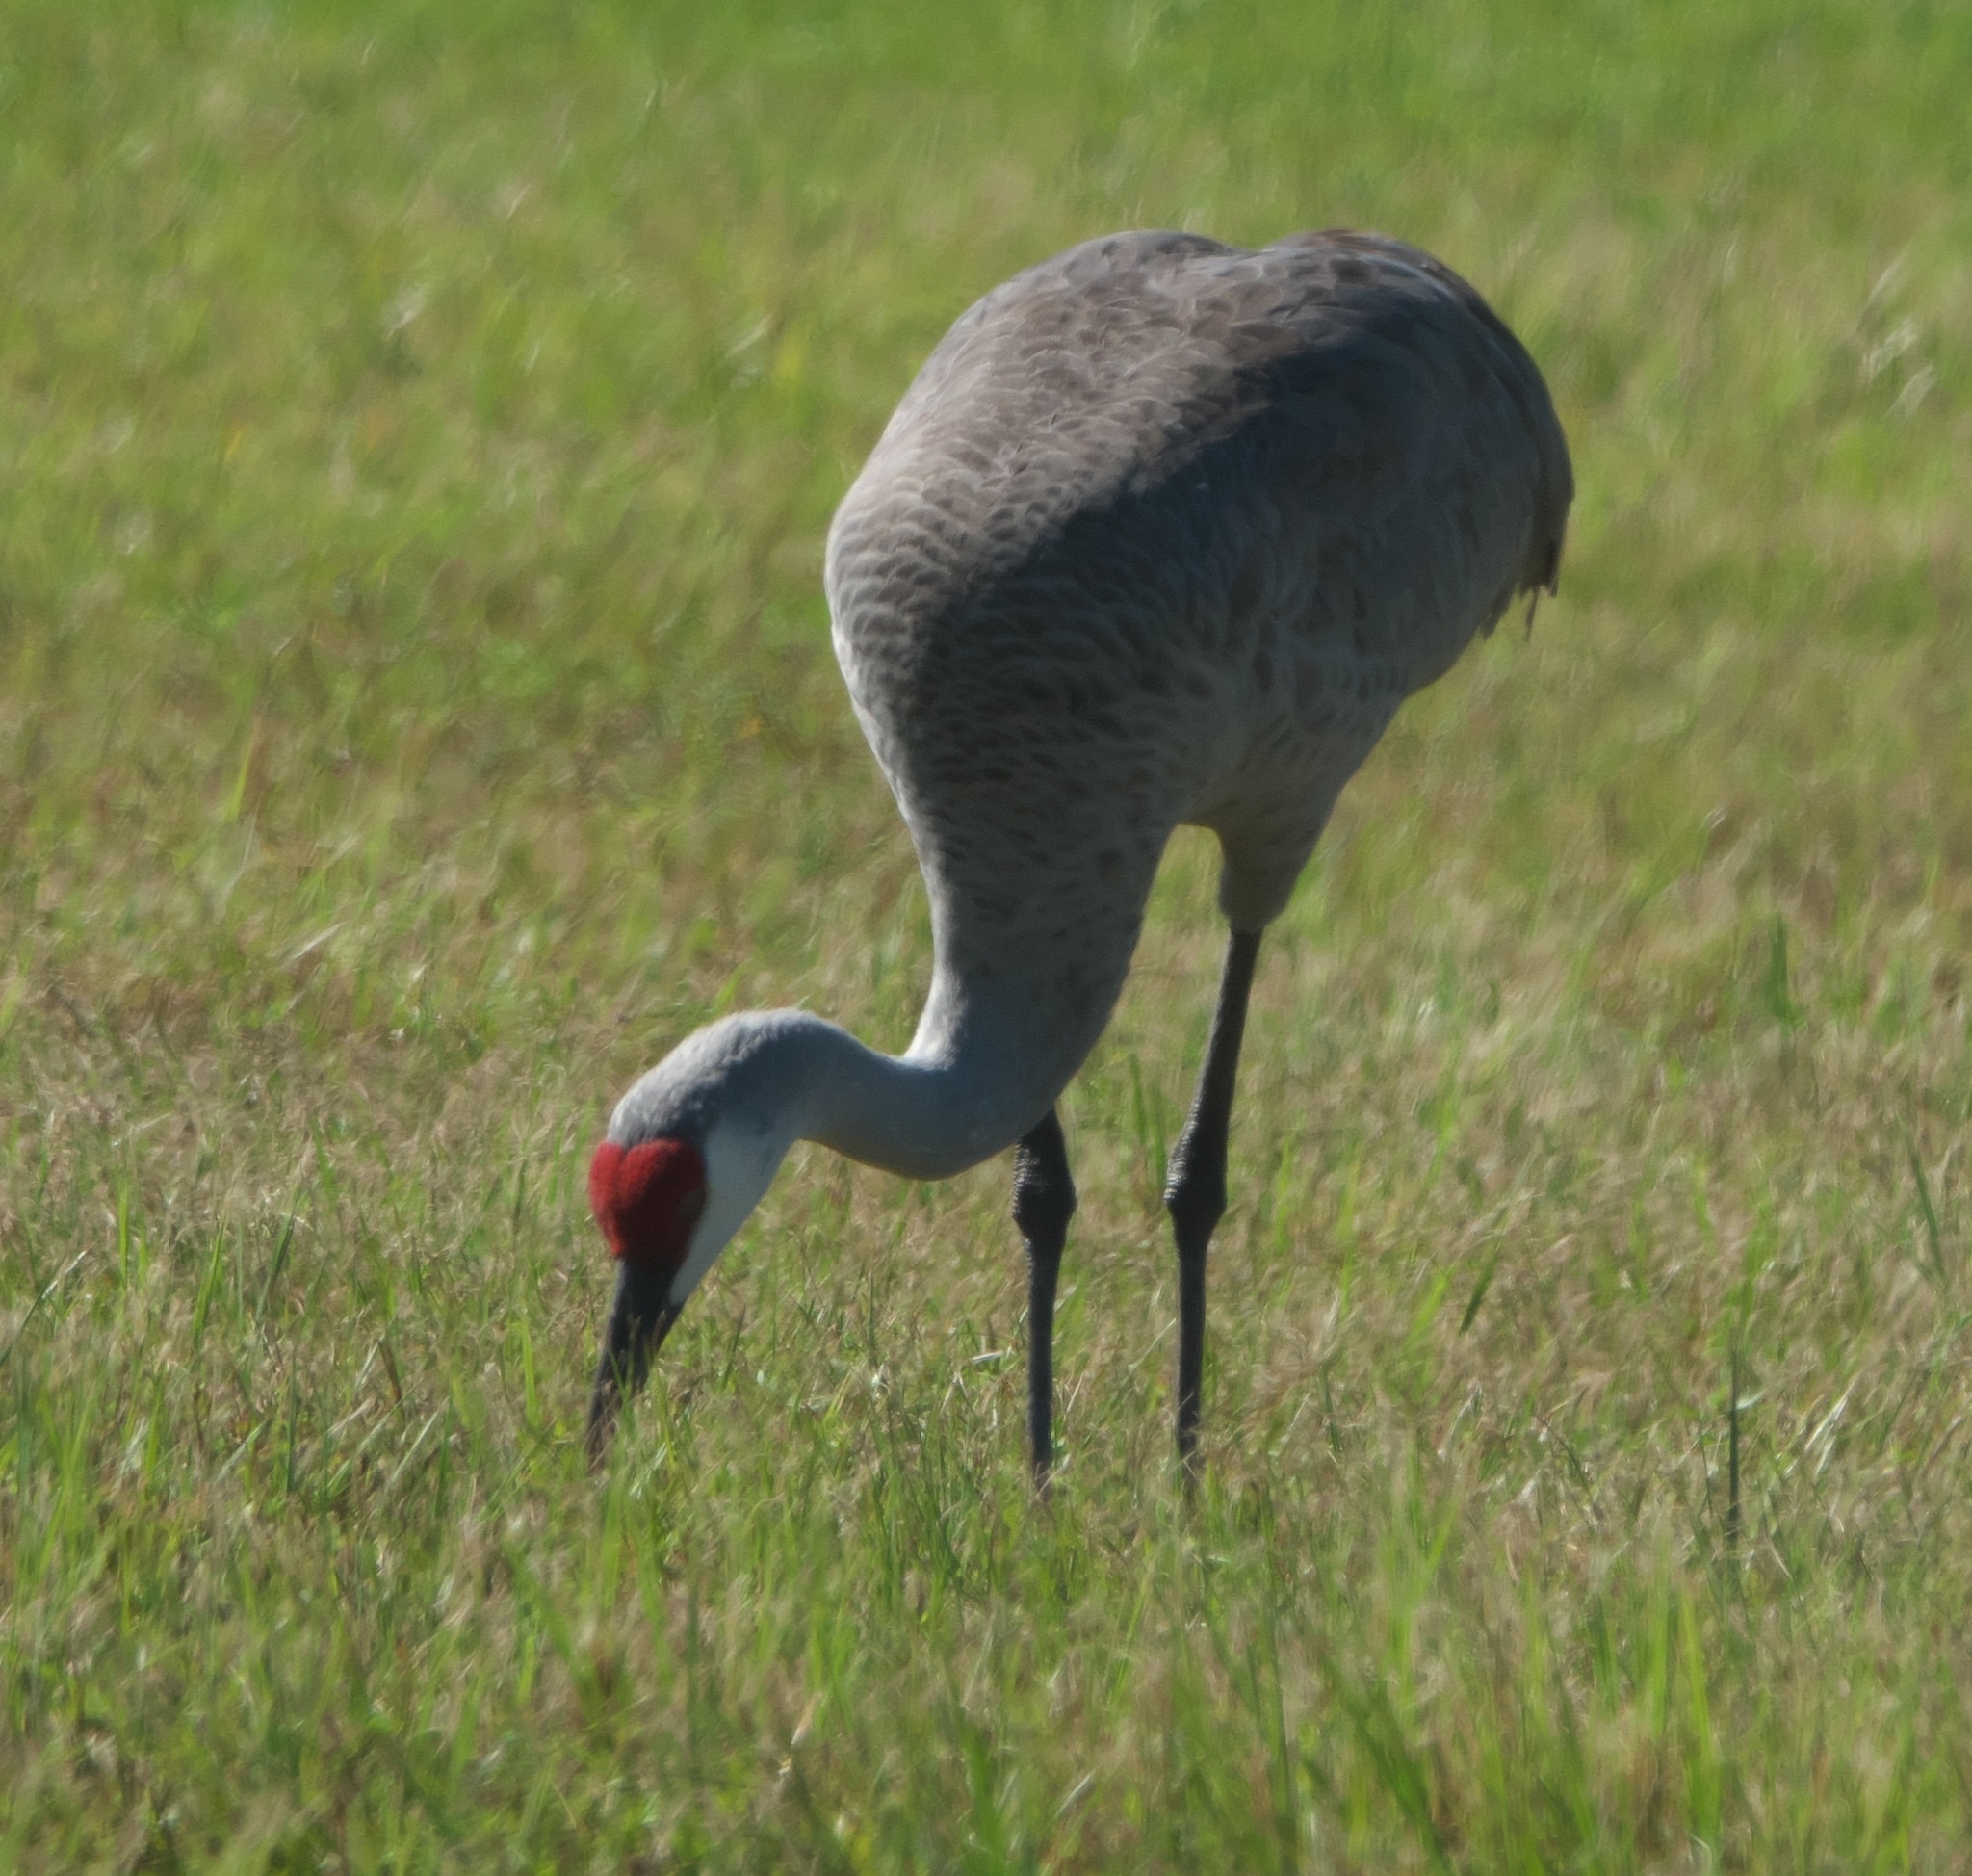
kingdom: Animalia
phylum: Chordata
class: Aves
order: Gruiformes
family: Gruidae
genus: Grus
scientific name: Grus canadensis
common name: Sandhill crane
